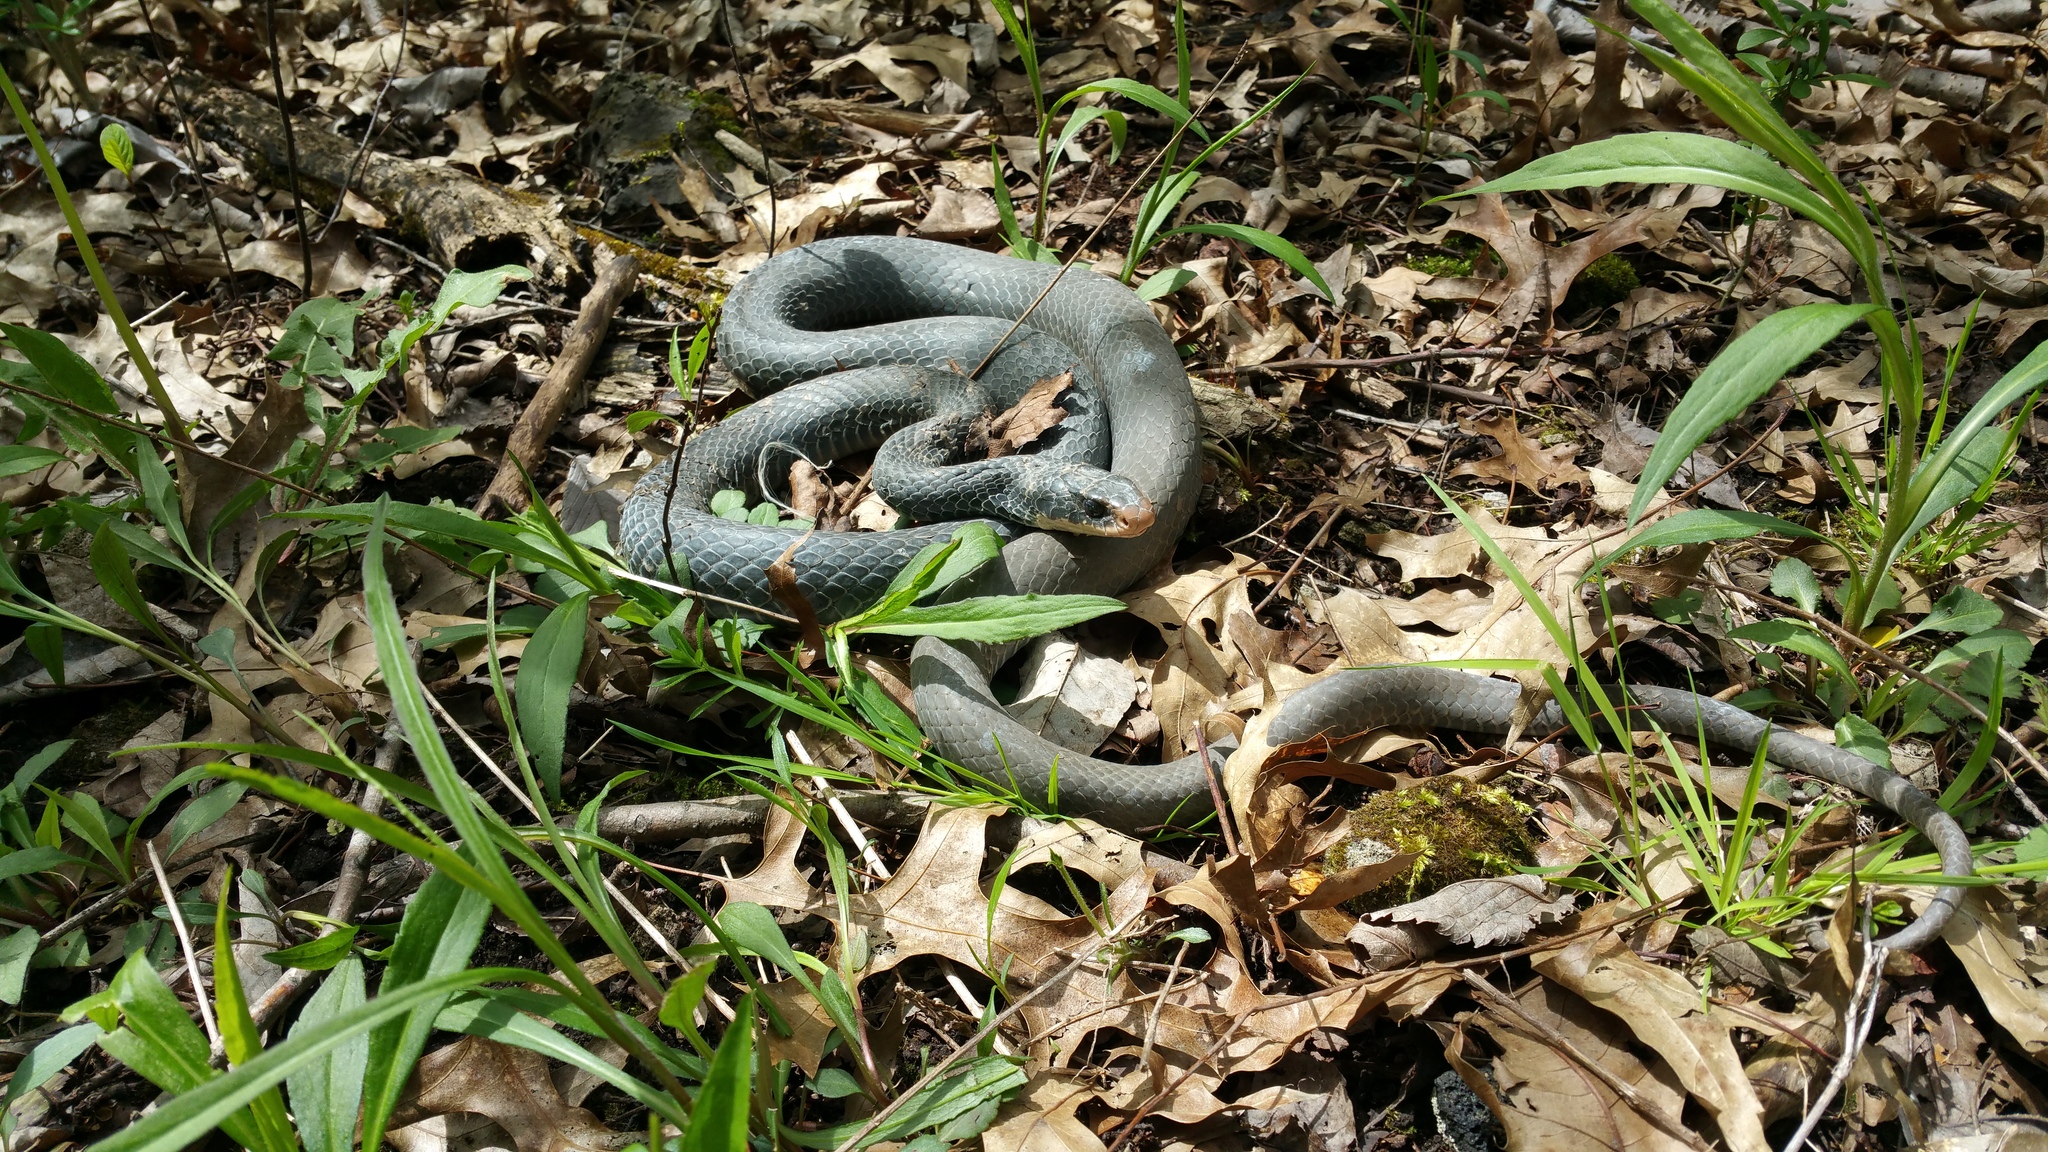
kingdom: Animalia
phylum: Chordata
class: Squamata
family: Colubridae
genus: Coluber
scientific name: Coluber constrictor
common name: Eastern racer
